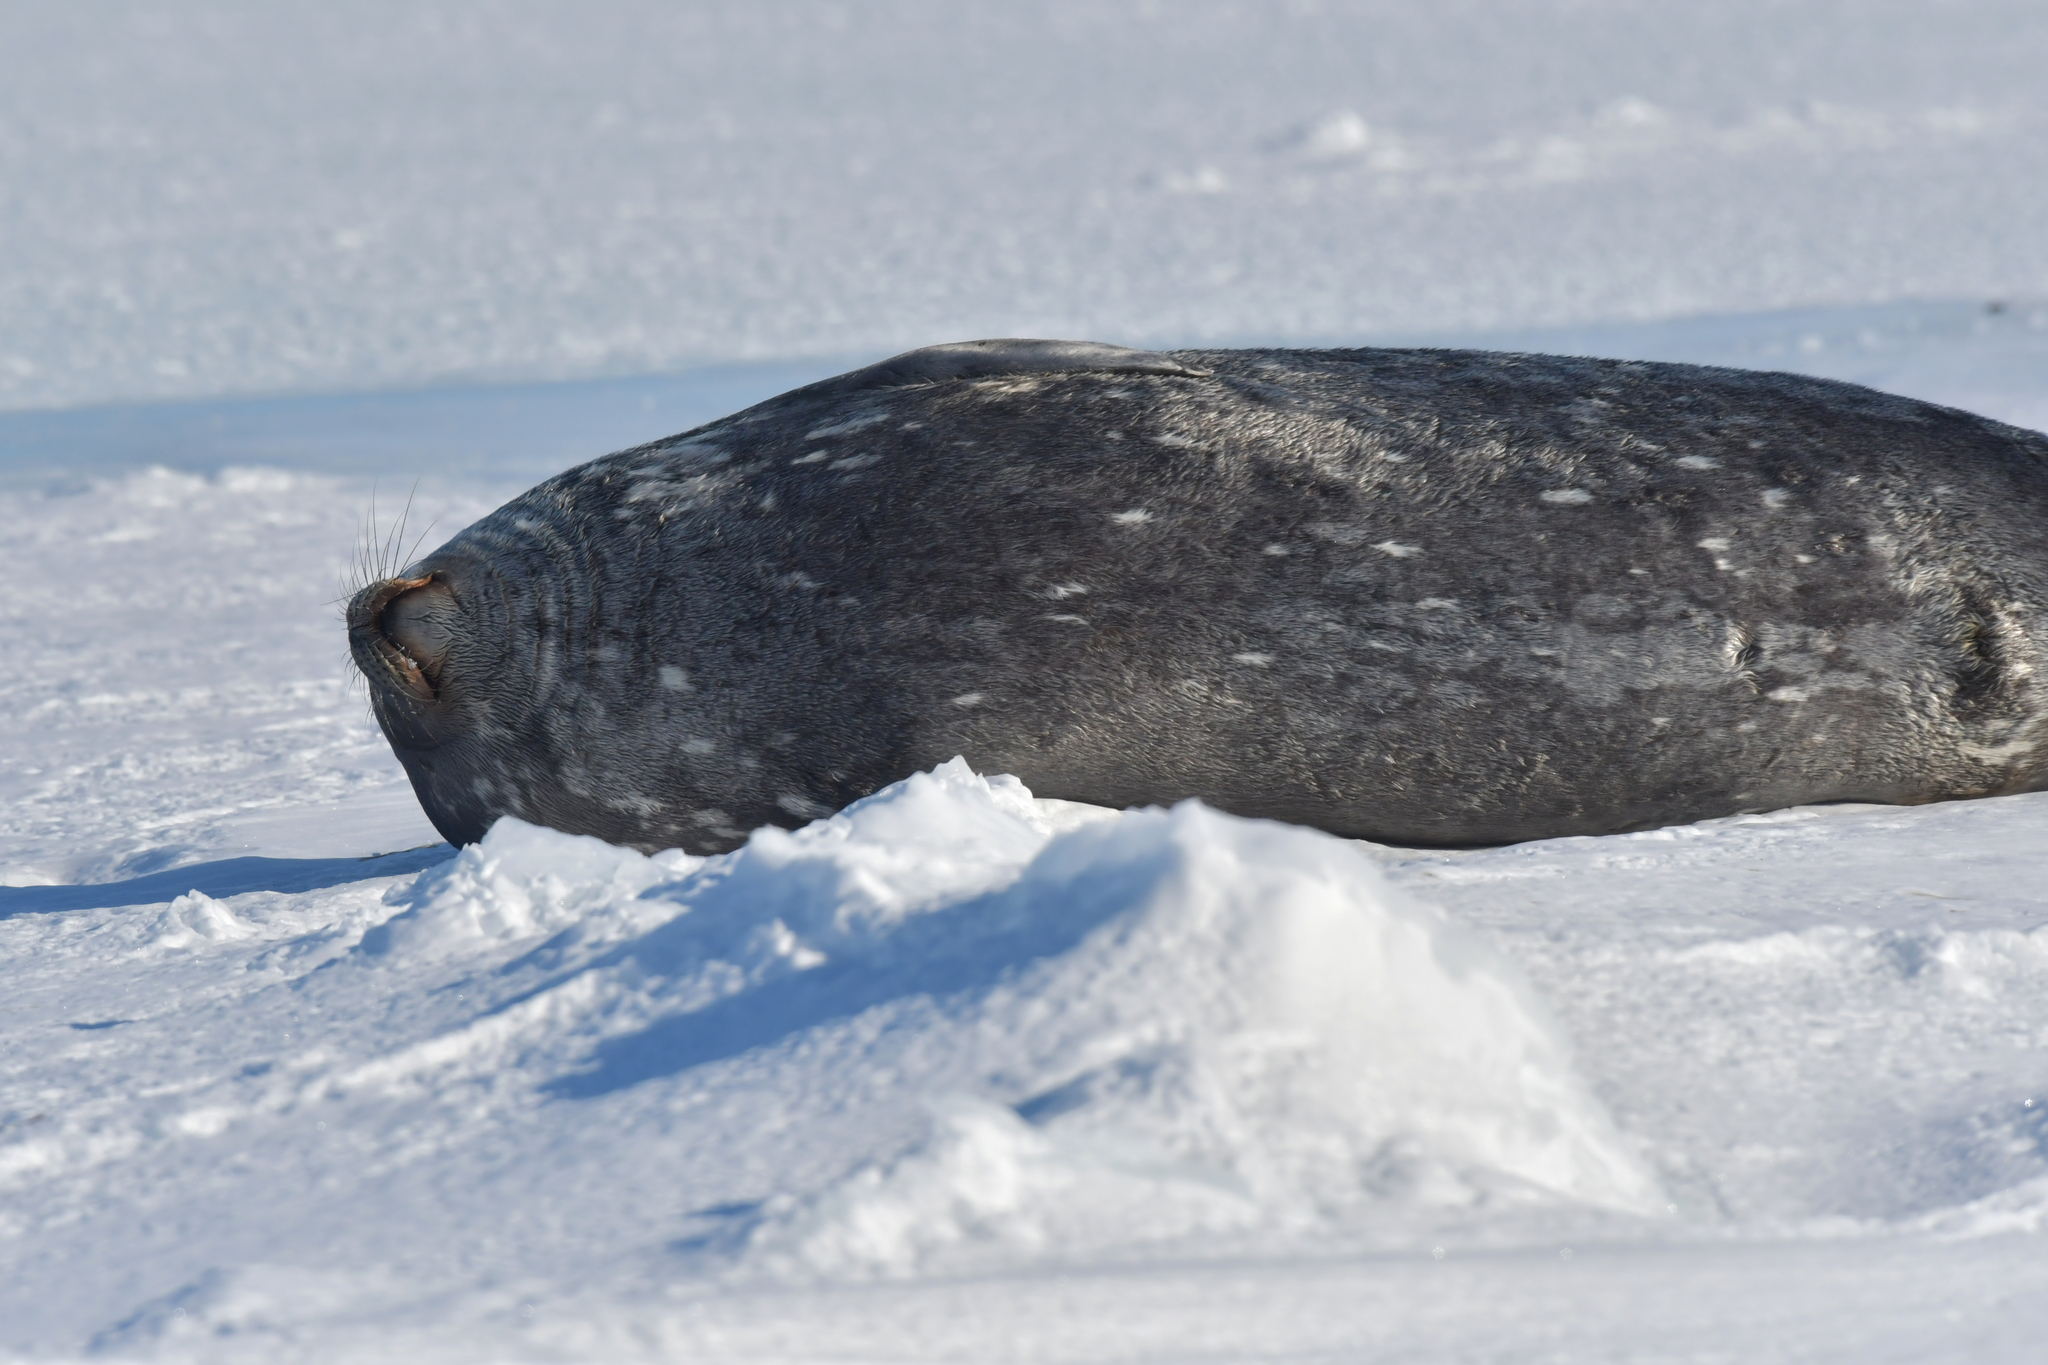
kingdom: Animalia
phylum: Chordata
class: Mammalia
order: Carnivora
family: Phocidae
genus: Leptonychotes
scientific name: Leptonychotes weddellii
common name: Weddell seal
